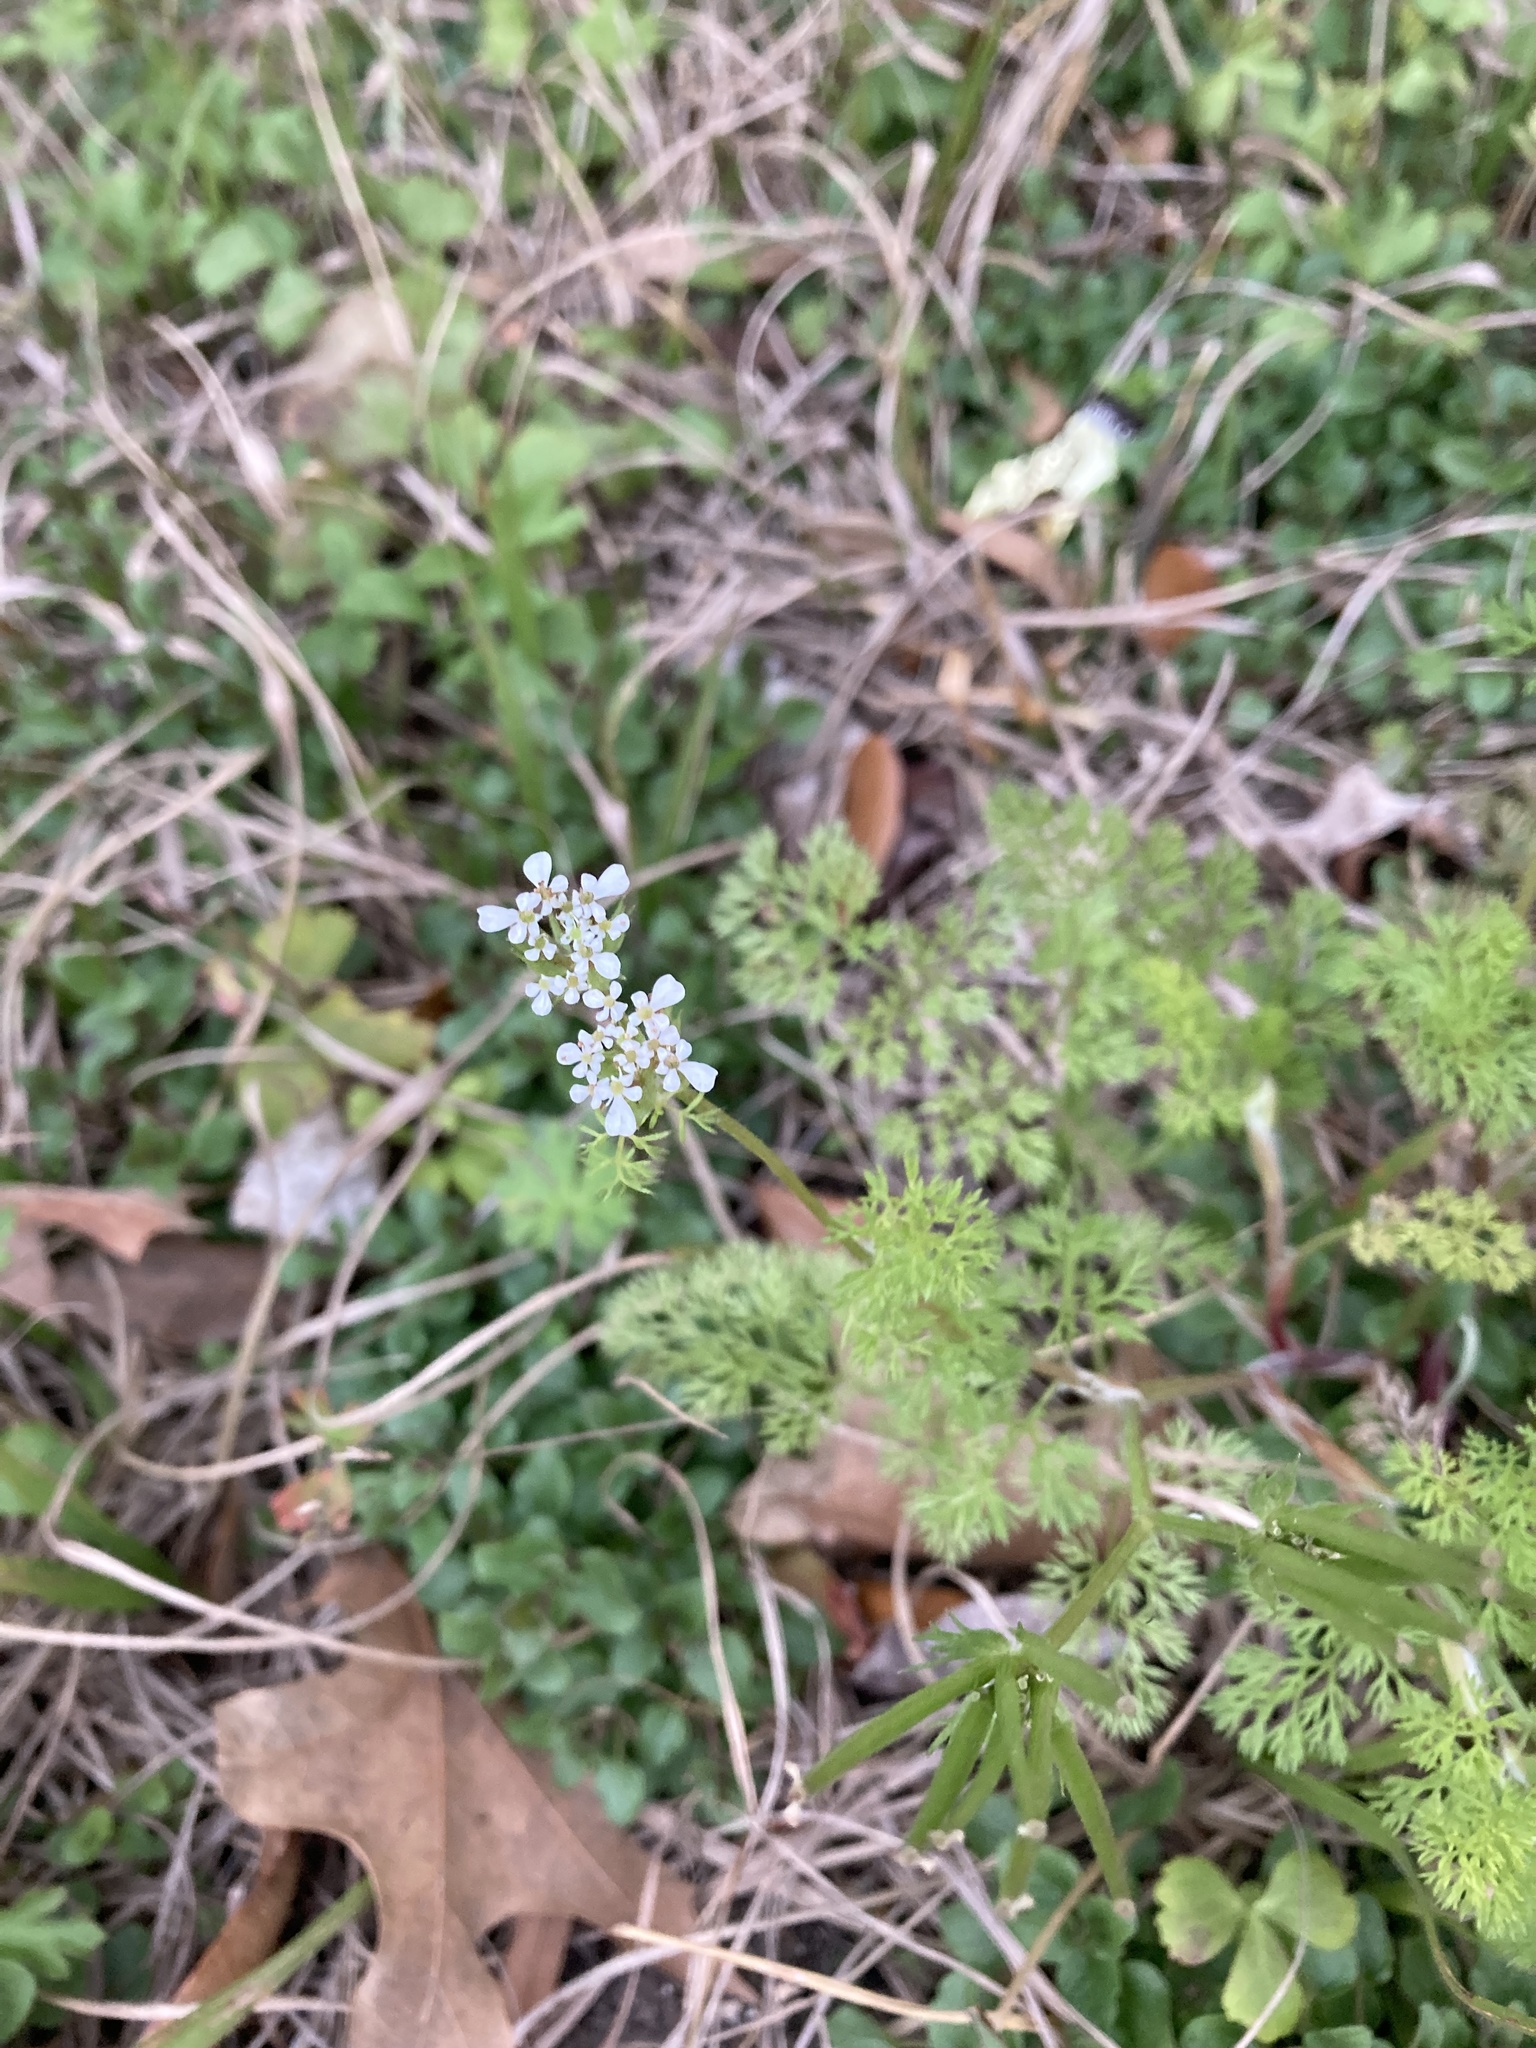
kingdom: Plantae
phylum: Tracheophyta
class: Magnoliopsida
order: Apiales
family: Apiaceae
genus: Scandix
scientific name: Scandix pecten-veneris
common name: Shepherd's-needle
